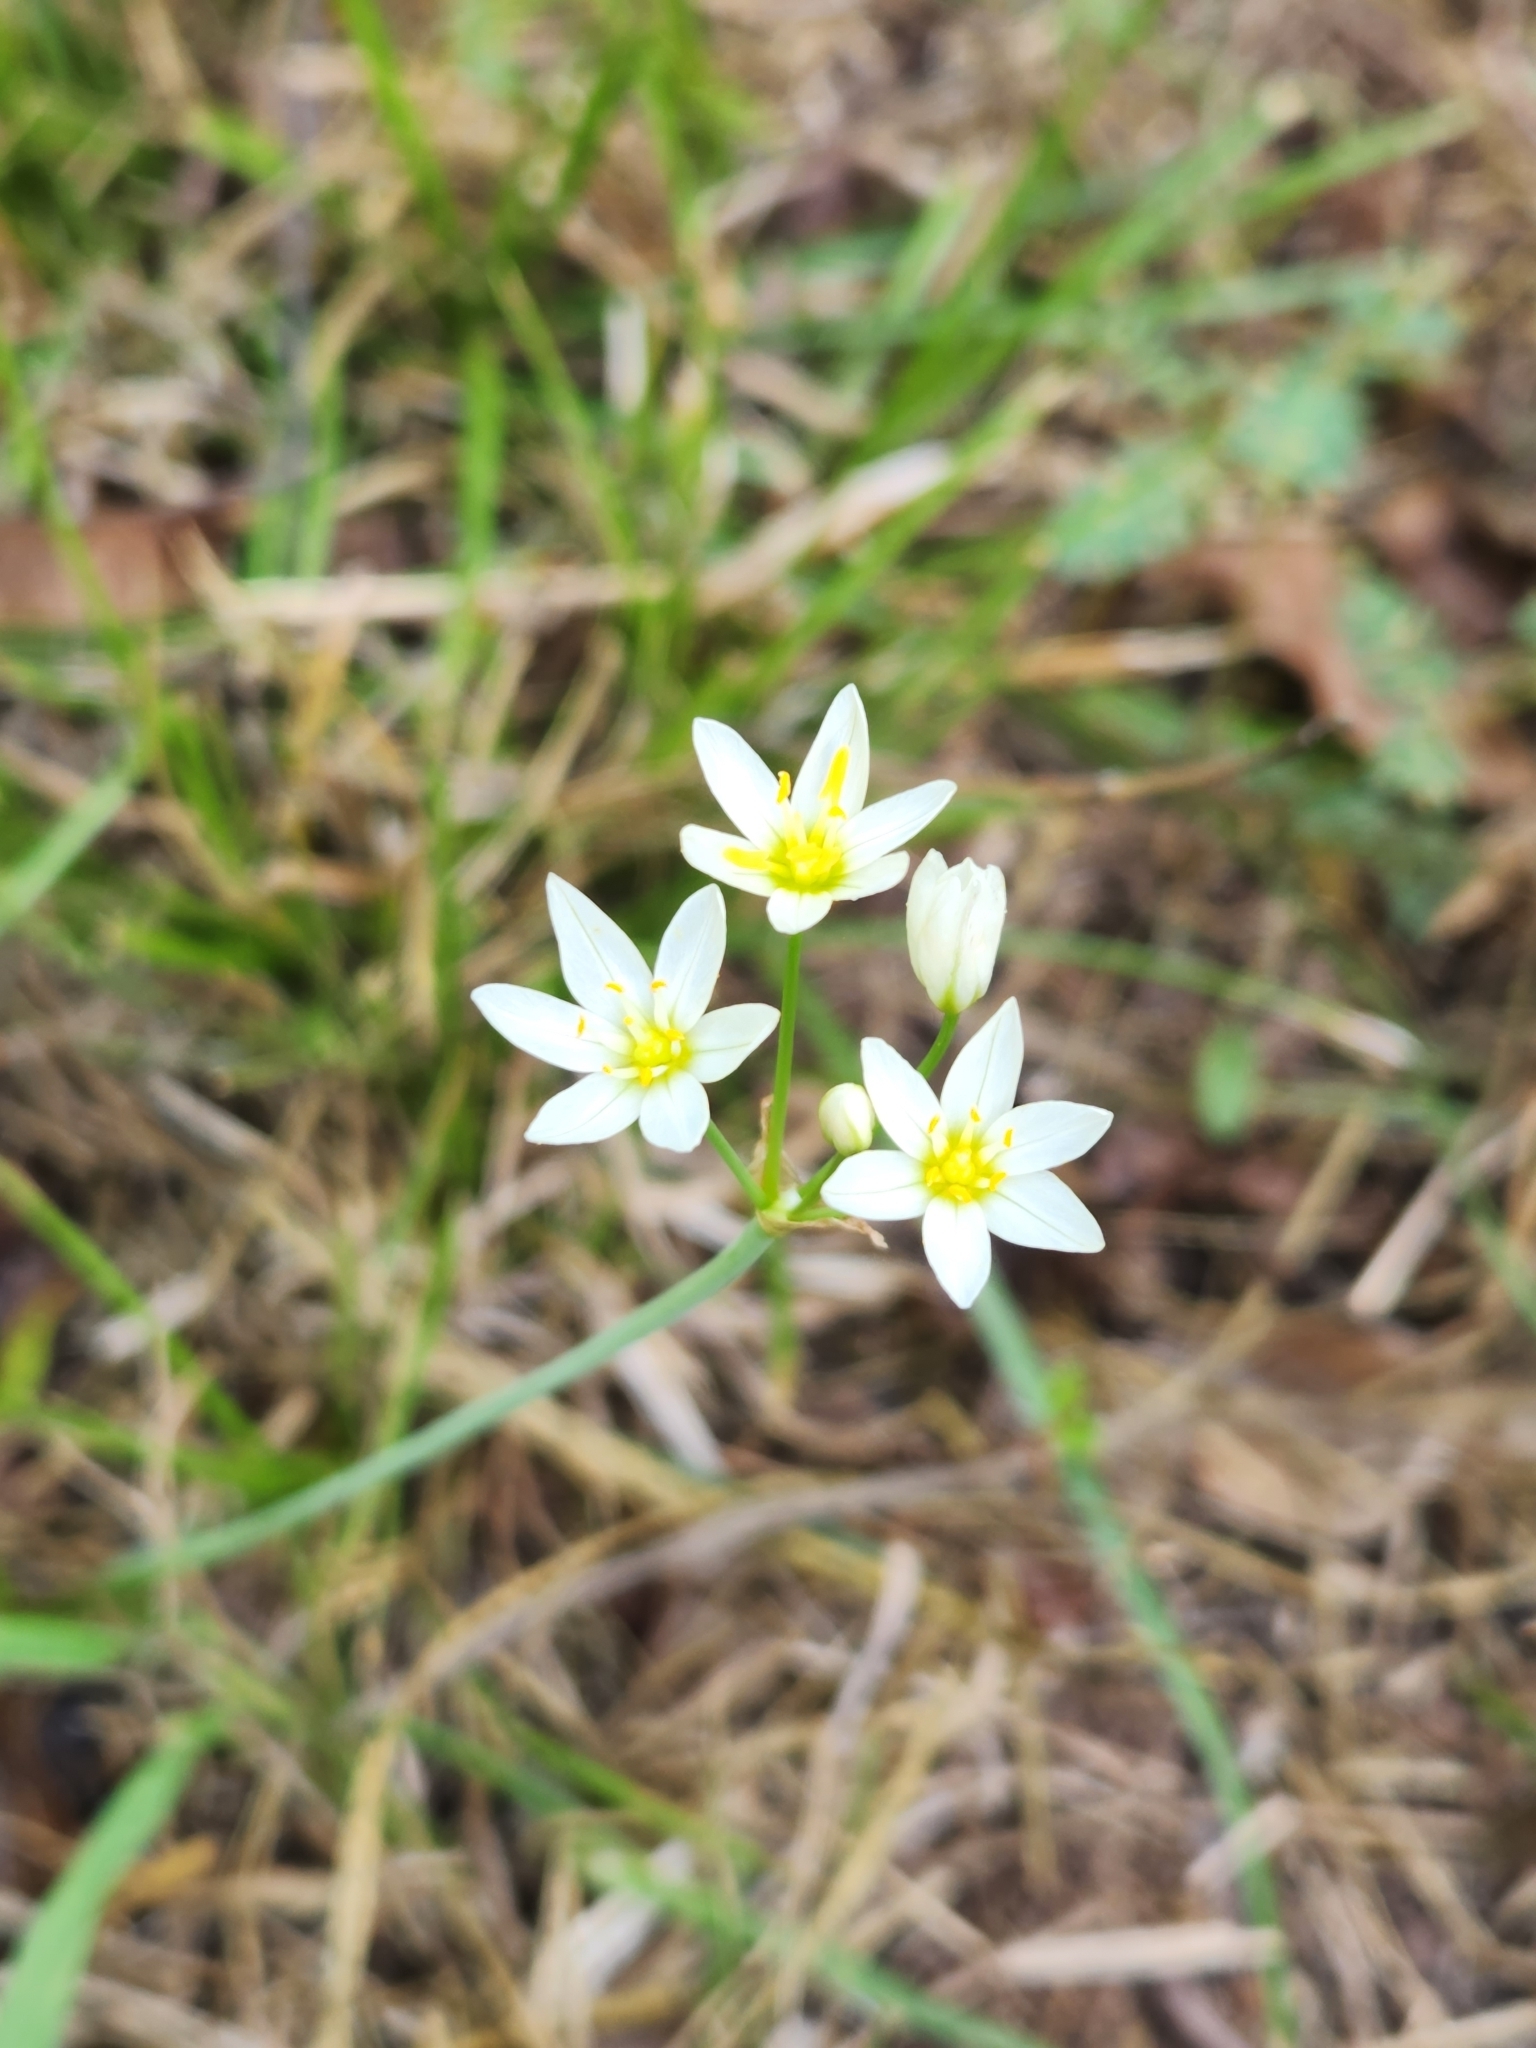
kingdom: Plantae
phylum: Tracheophyta
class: Liliopsida
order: Asparagales
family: Amaryllidaceae
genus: Nothoscordum
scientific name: Nothoscordum bivalve
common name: Crow-poison
